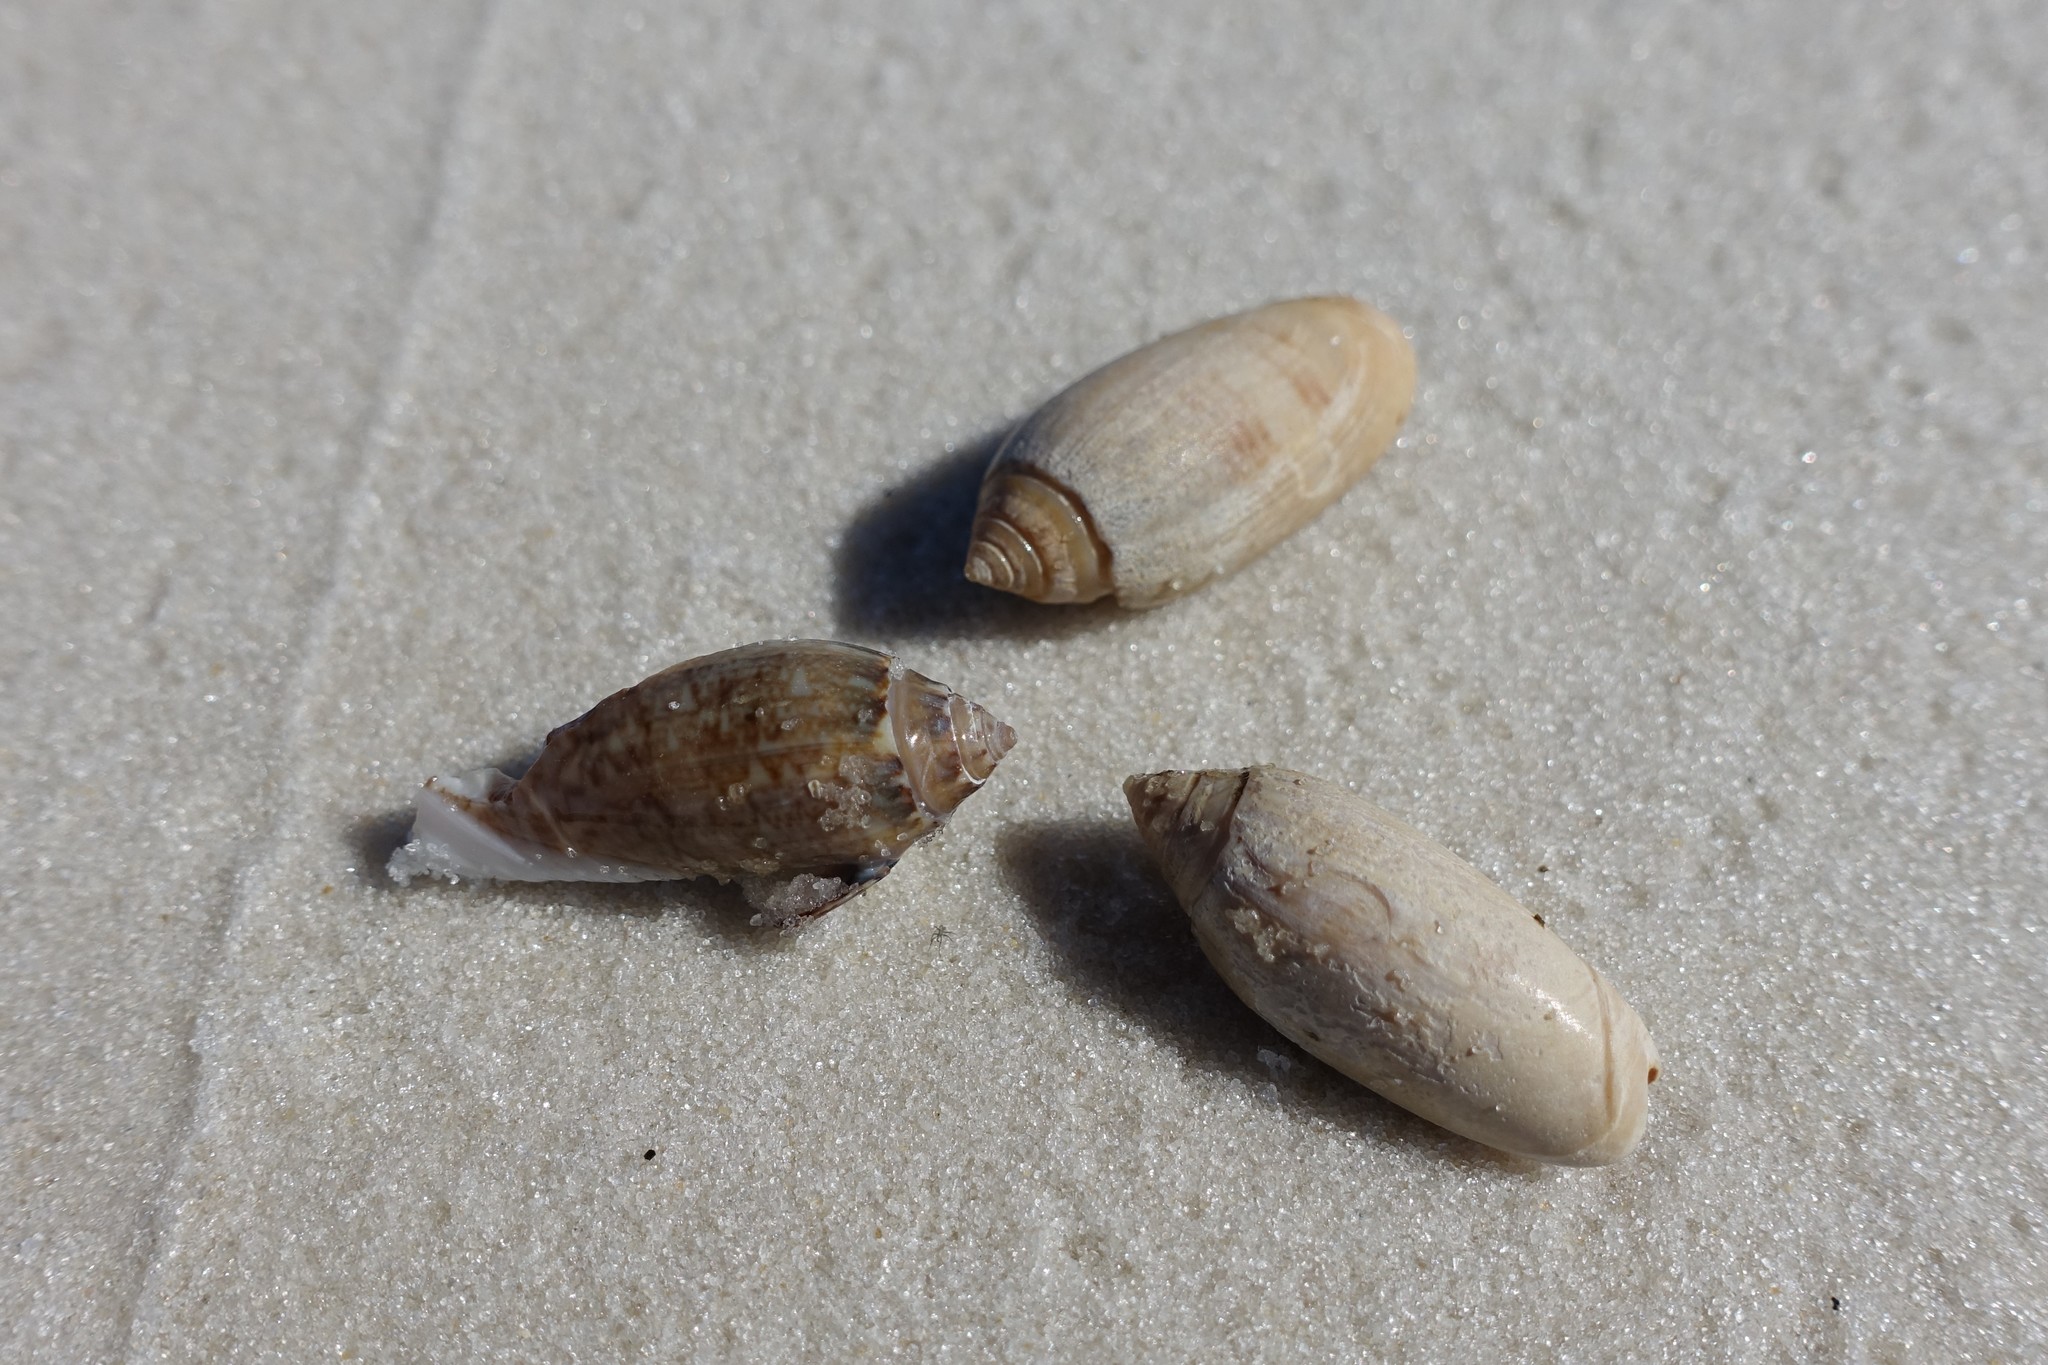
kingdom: Animalia
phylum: Mollusca
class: Gastropoda
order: Neogastropoda
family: Olividae
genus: Oliva
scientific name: Oliva sayana
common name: Lettered olive
